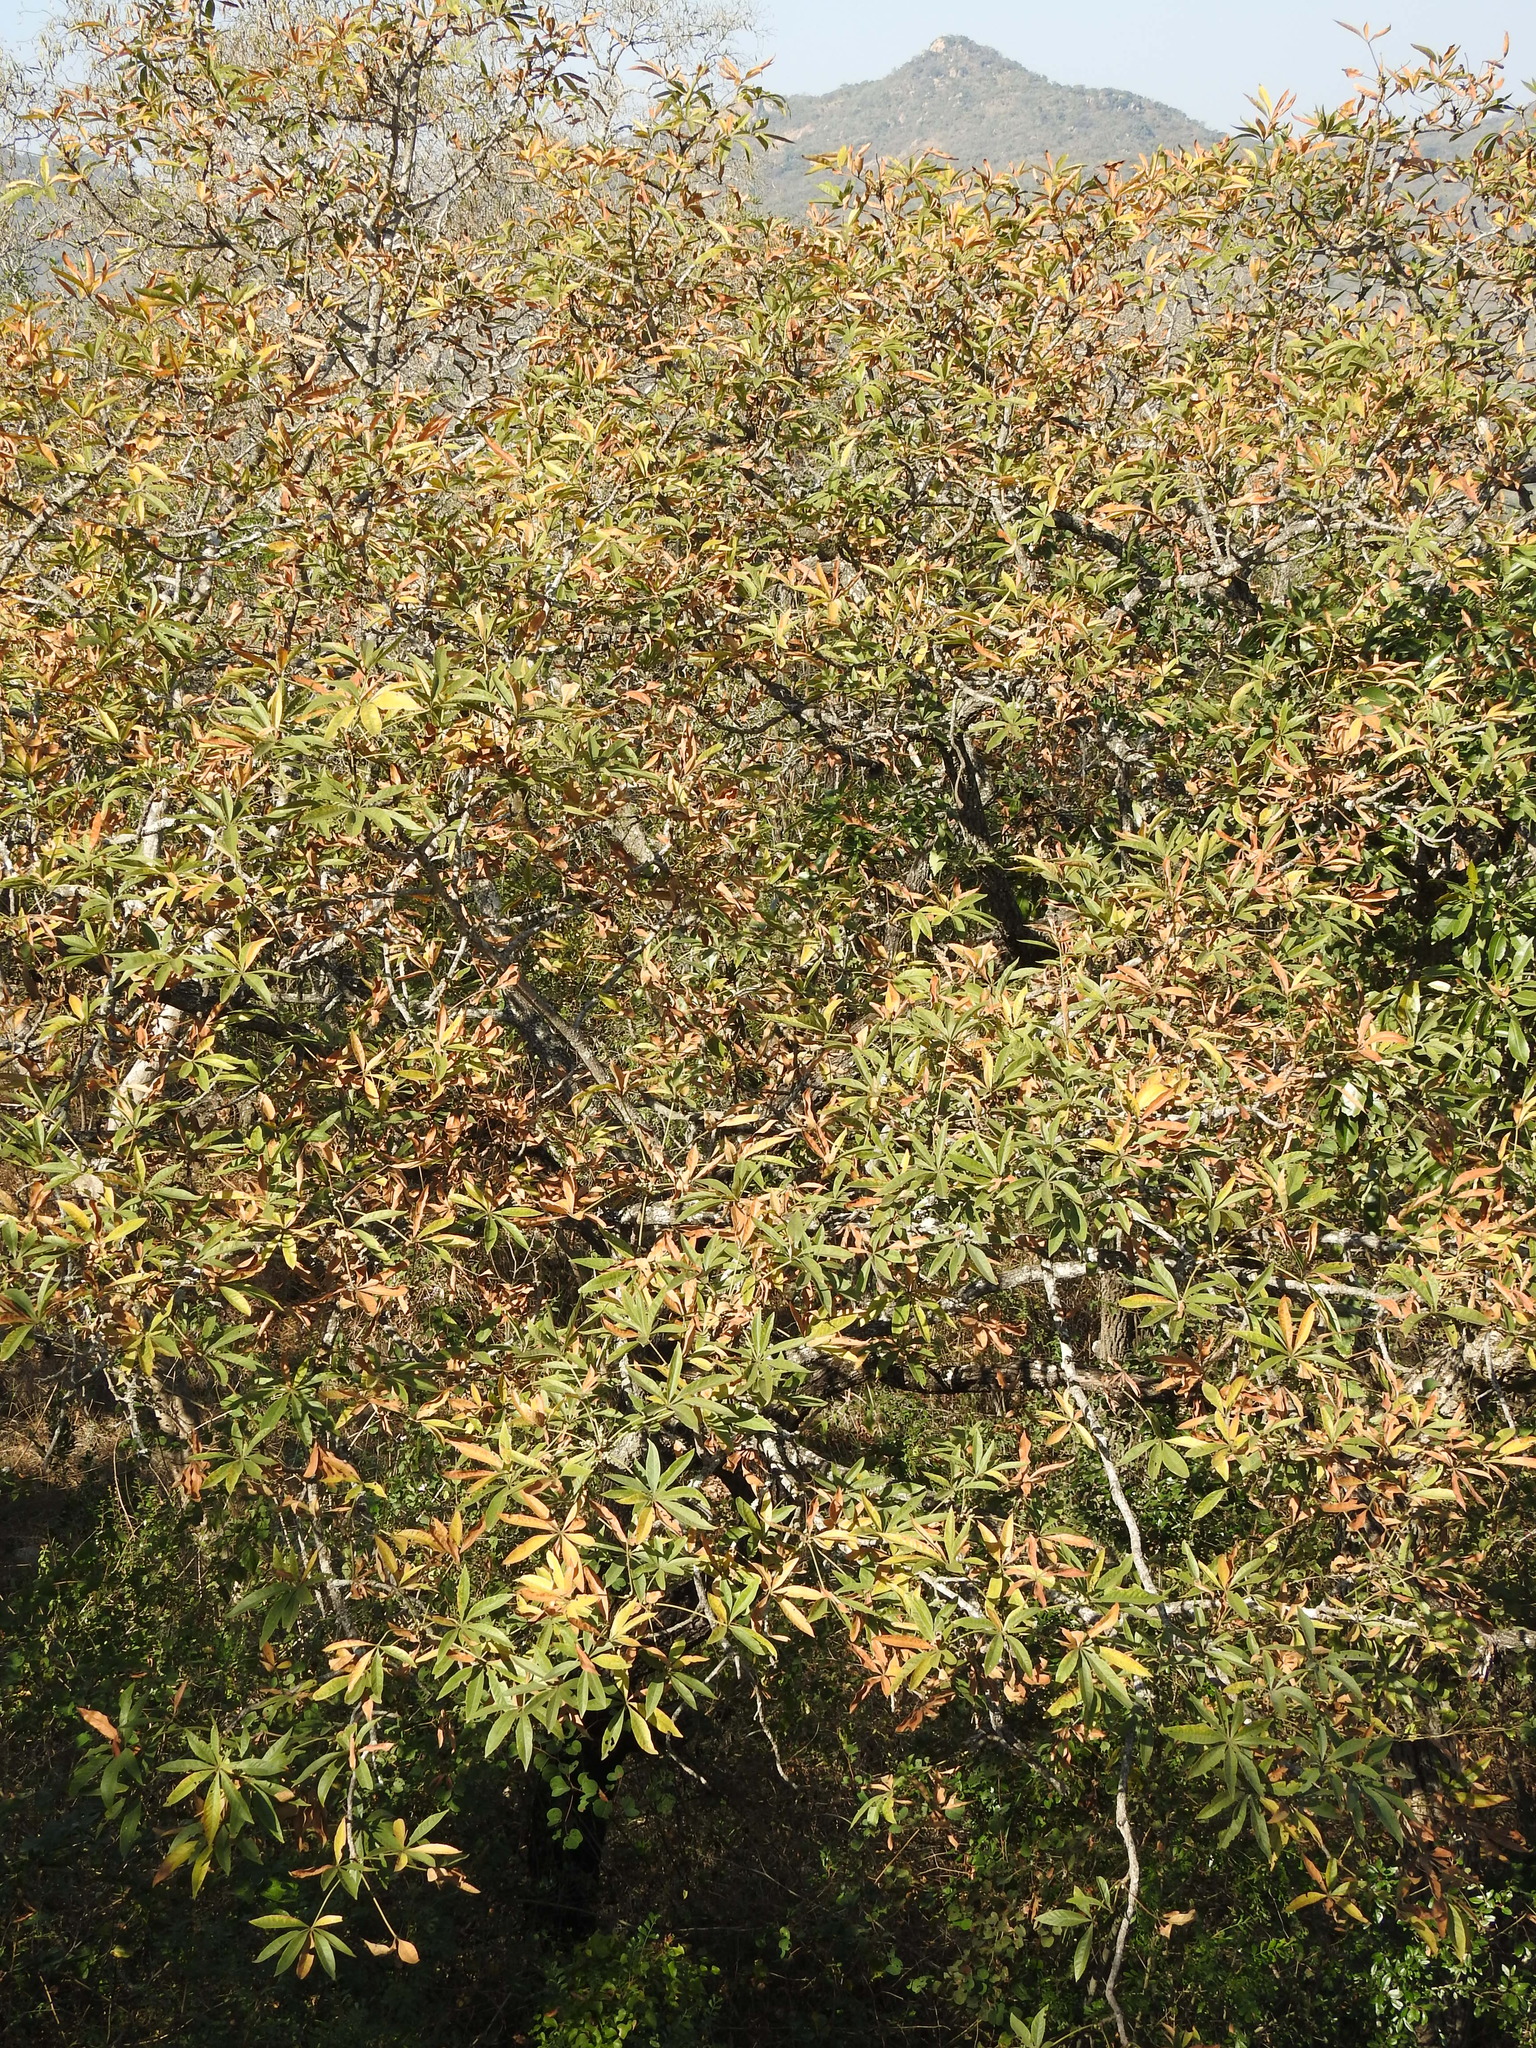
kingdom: Plantae
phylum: Tracheophyta
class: Magnoliopsida
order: Malvales
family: Malvaceae
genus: Sterculia
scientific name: Sterculia murex
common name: Lowveld star-chestnut
